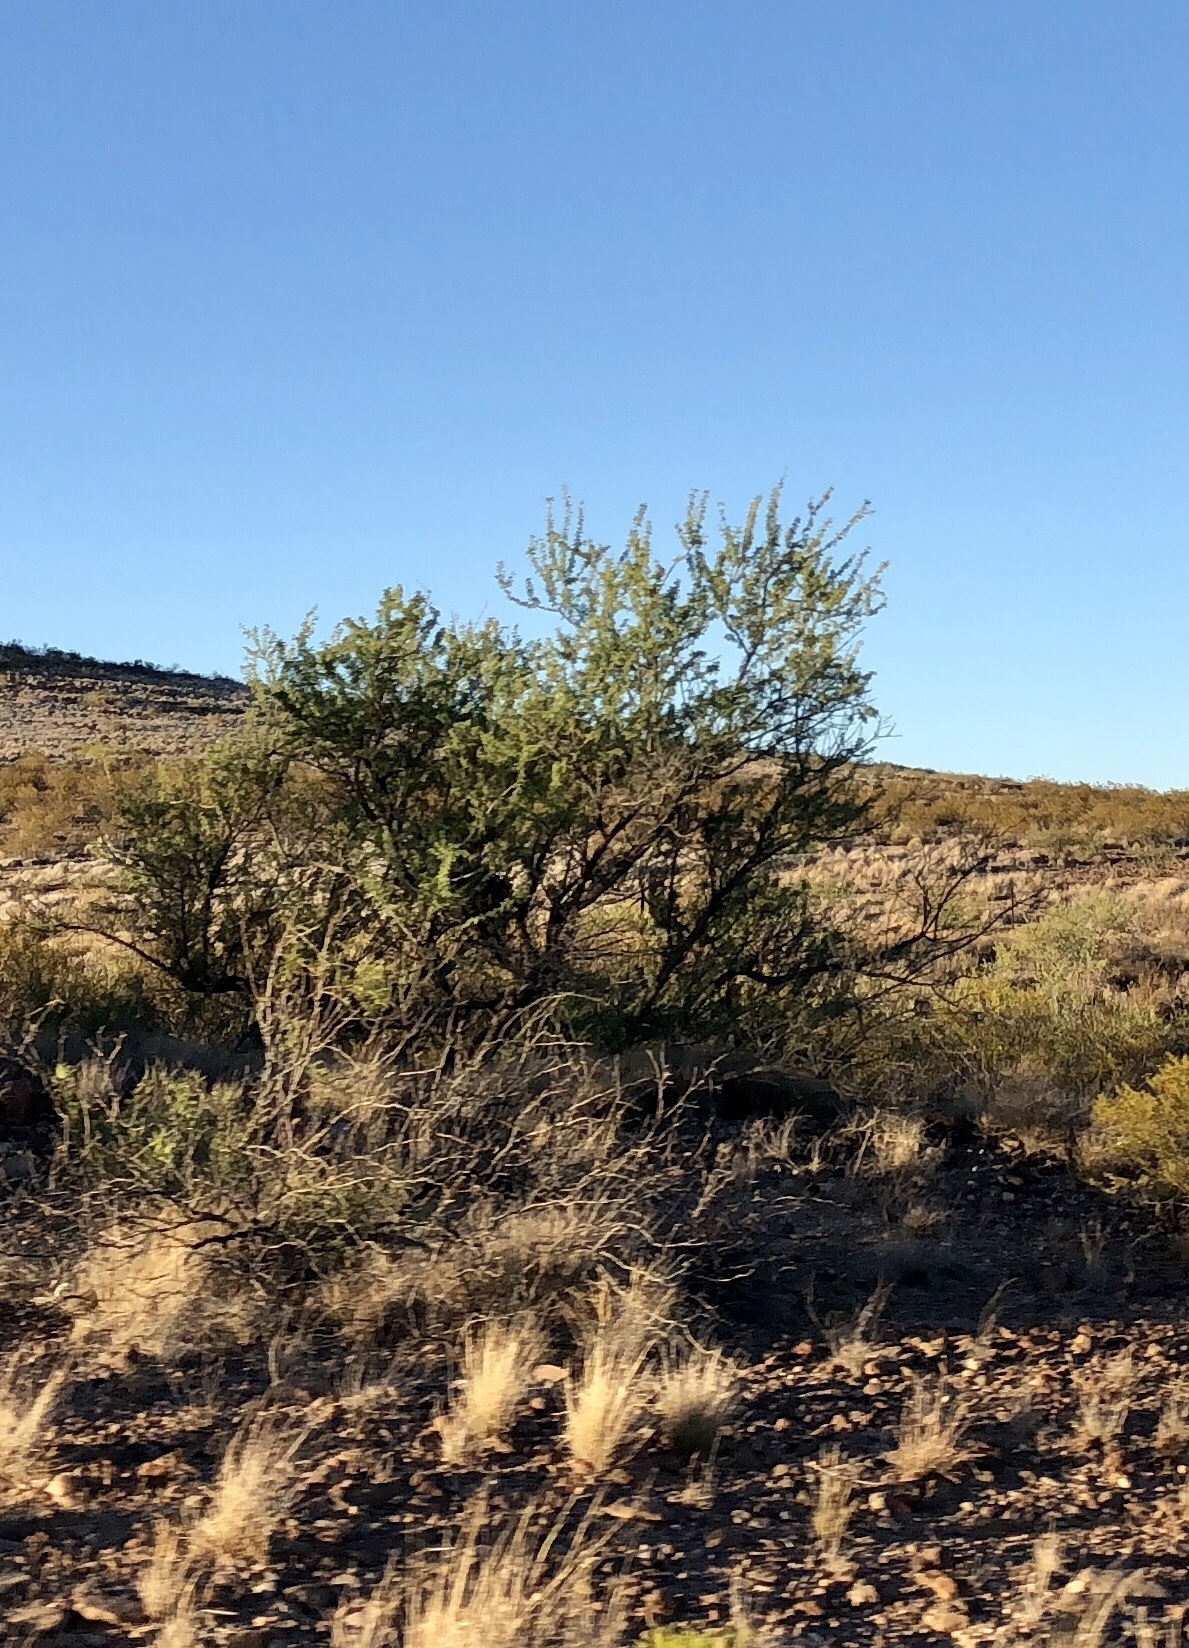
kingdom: Plantae
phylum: Tracheophyta
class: Magnoliopsida
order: Fabales
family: Fabaceae
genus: Senegalia
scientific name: Senegalia greggii
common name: Texas-mimosa
